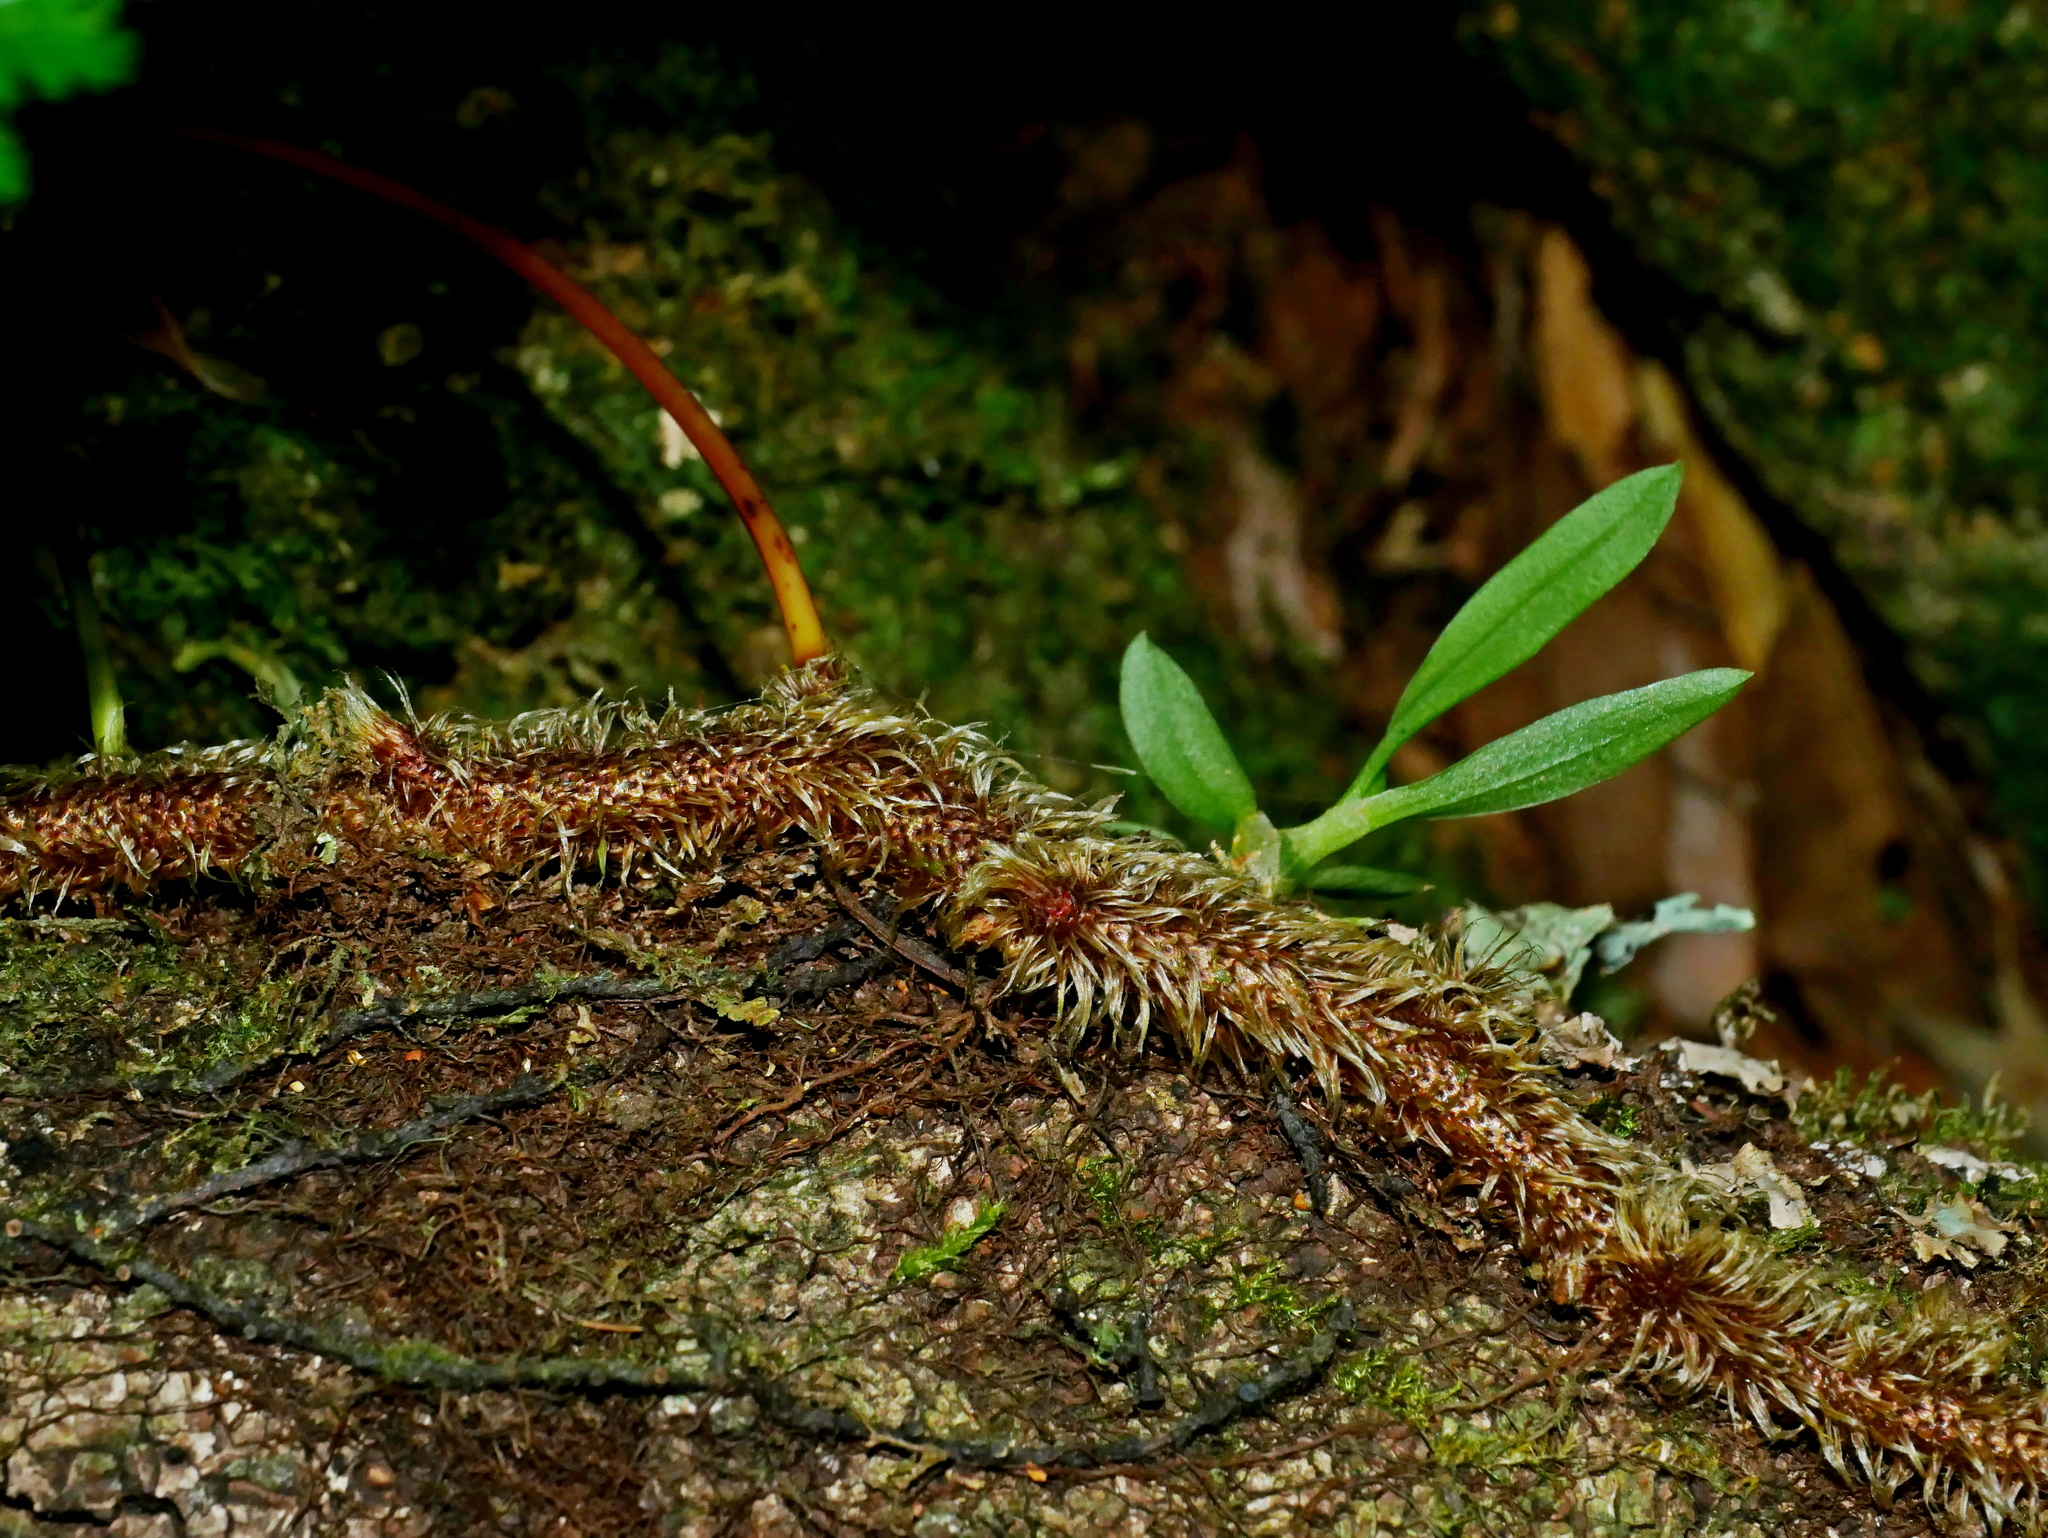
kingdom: Plantae
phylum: Tracheophyta
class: Polypodiopsida
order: Polypodiales
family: Davalliaceae
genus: Davallia
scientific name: Davallia trichomanoides
